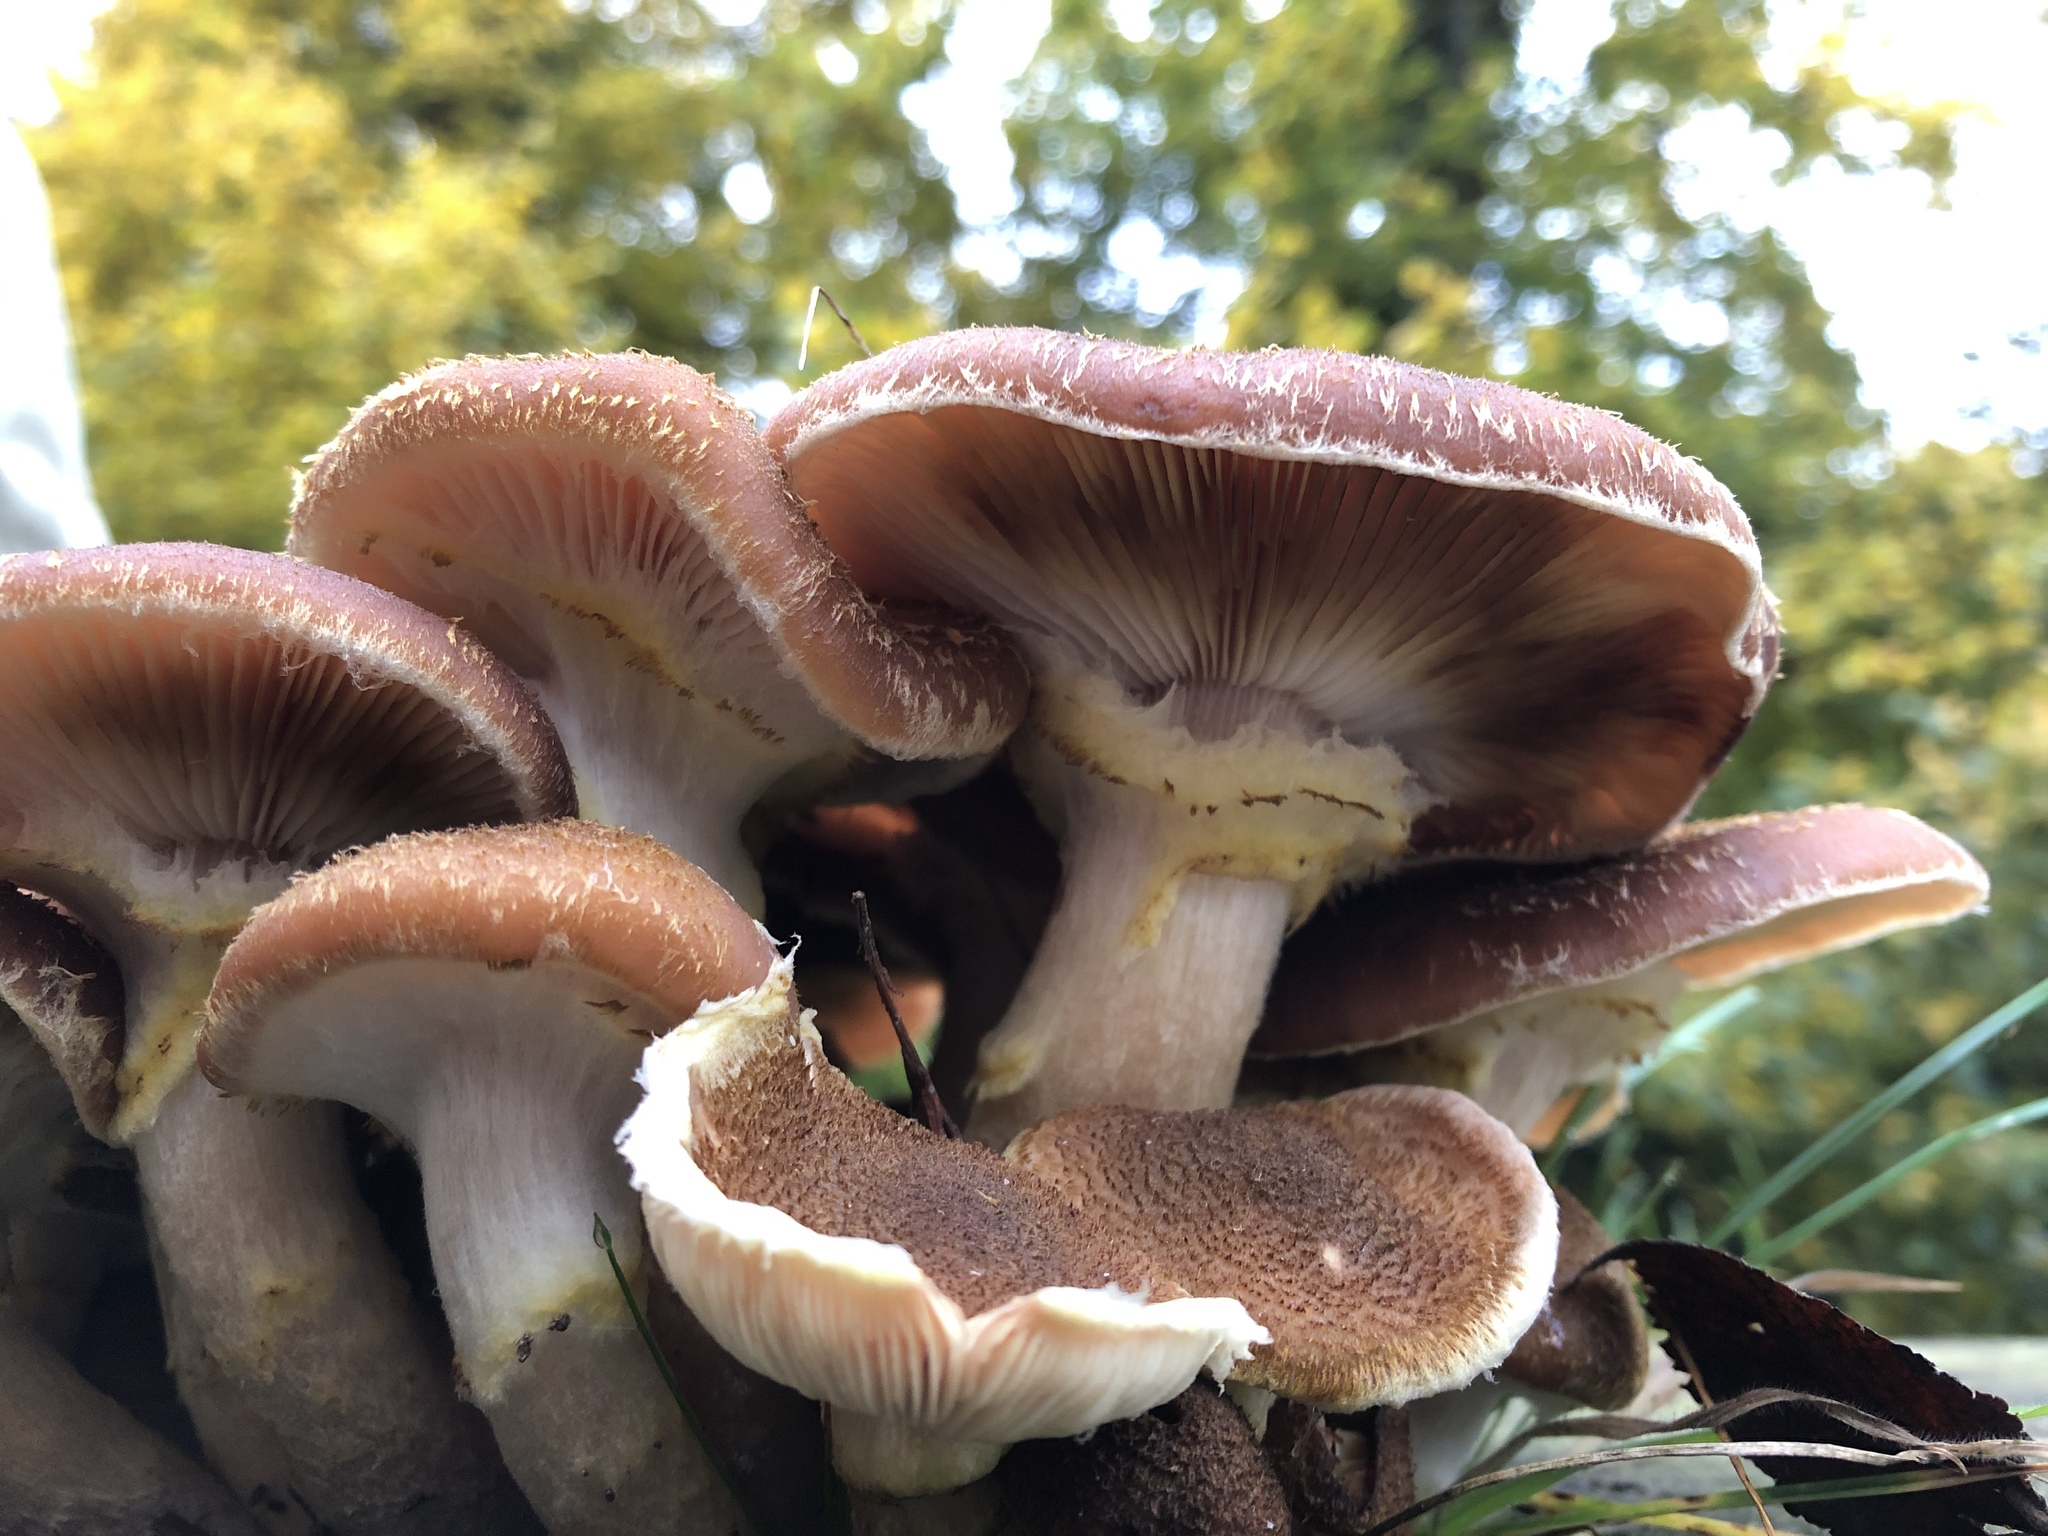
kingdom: Fungi
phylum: Basidiomycota
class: Agaricomycetes
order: Agaricales
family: Physalacriaceae
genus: Armillaria
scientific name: Armillaria ostoyae
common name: Dark honey fungus
